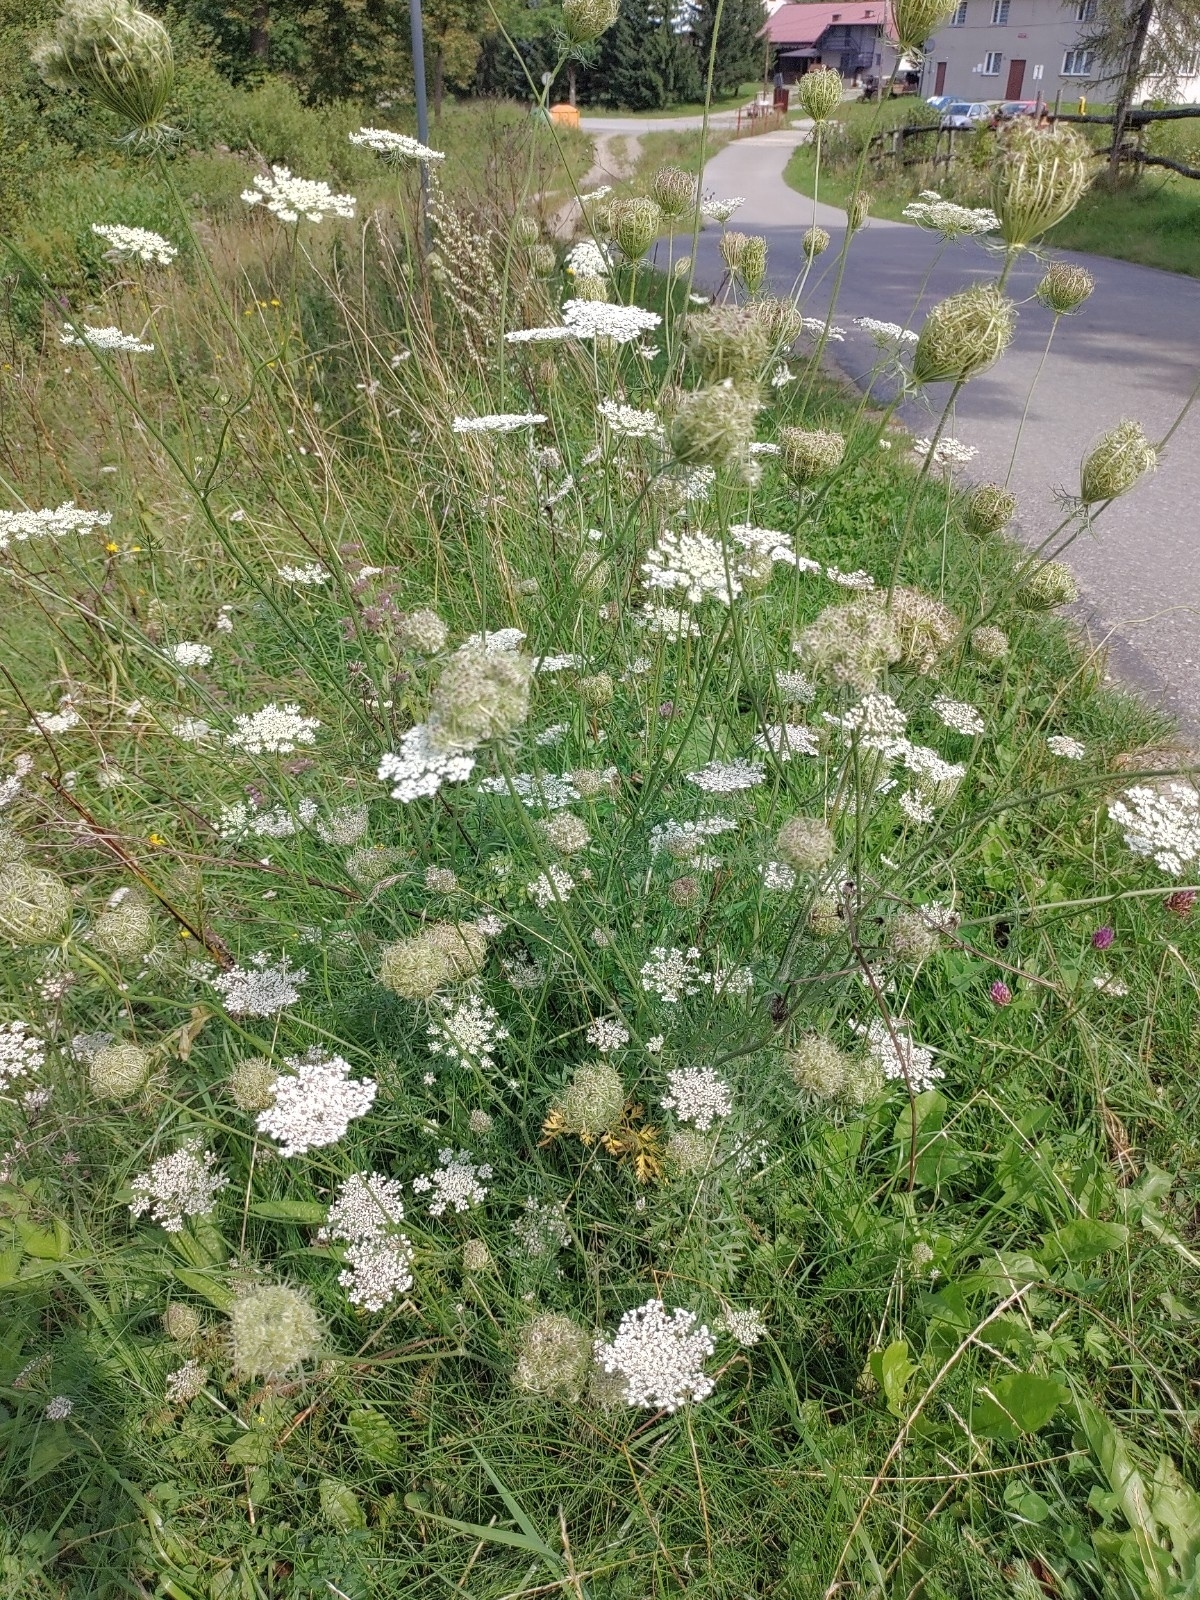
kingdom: Plantae
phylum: Tracheophyta
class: Magnoliopsida
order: Apiales
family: Apiaceae
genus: Daucus
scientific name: Daucus carota
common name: Wild carrot
